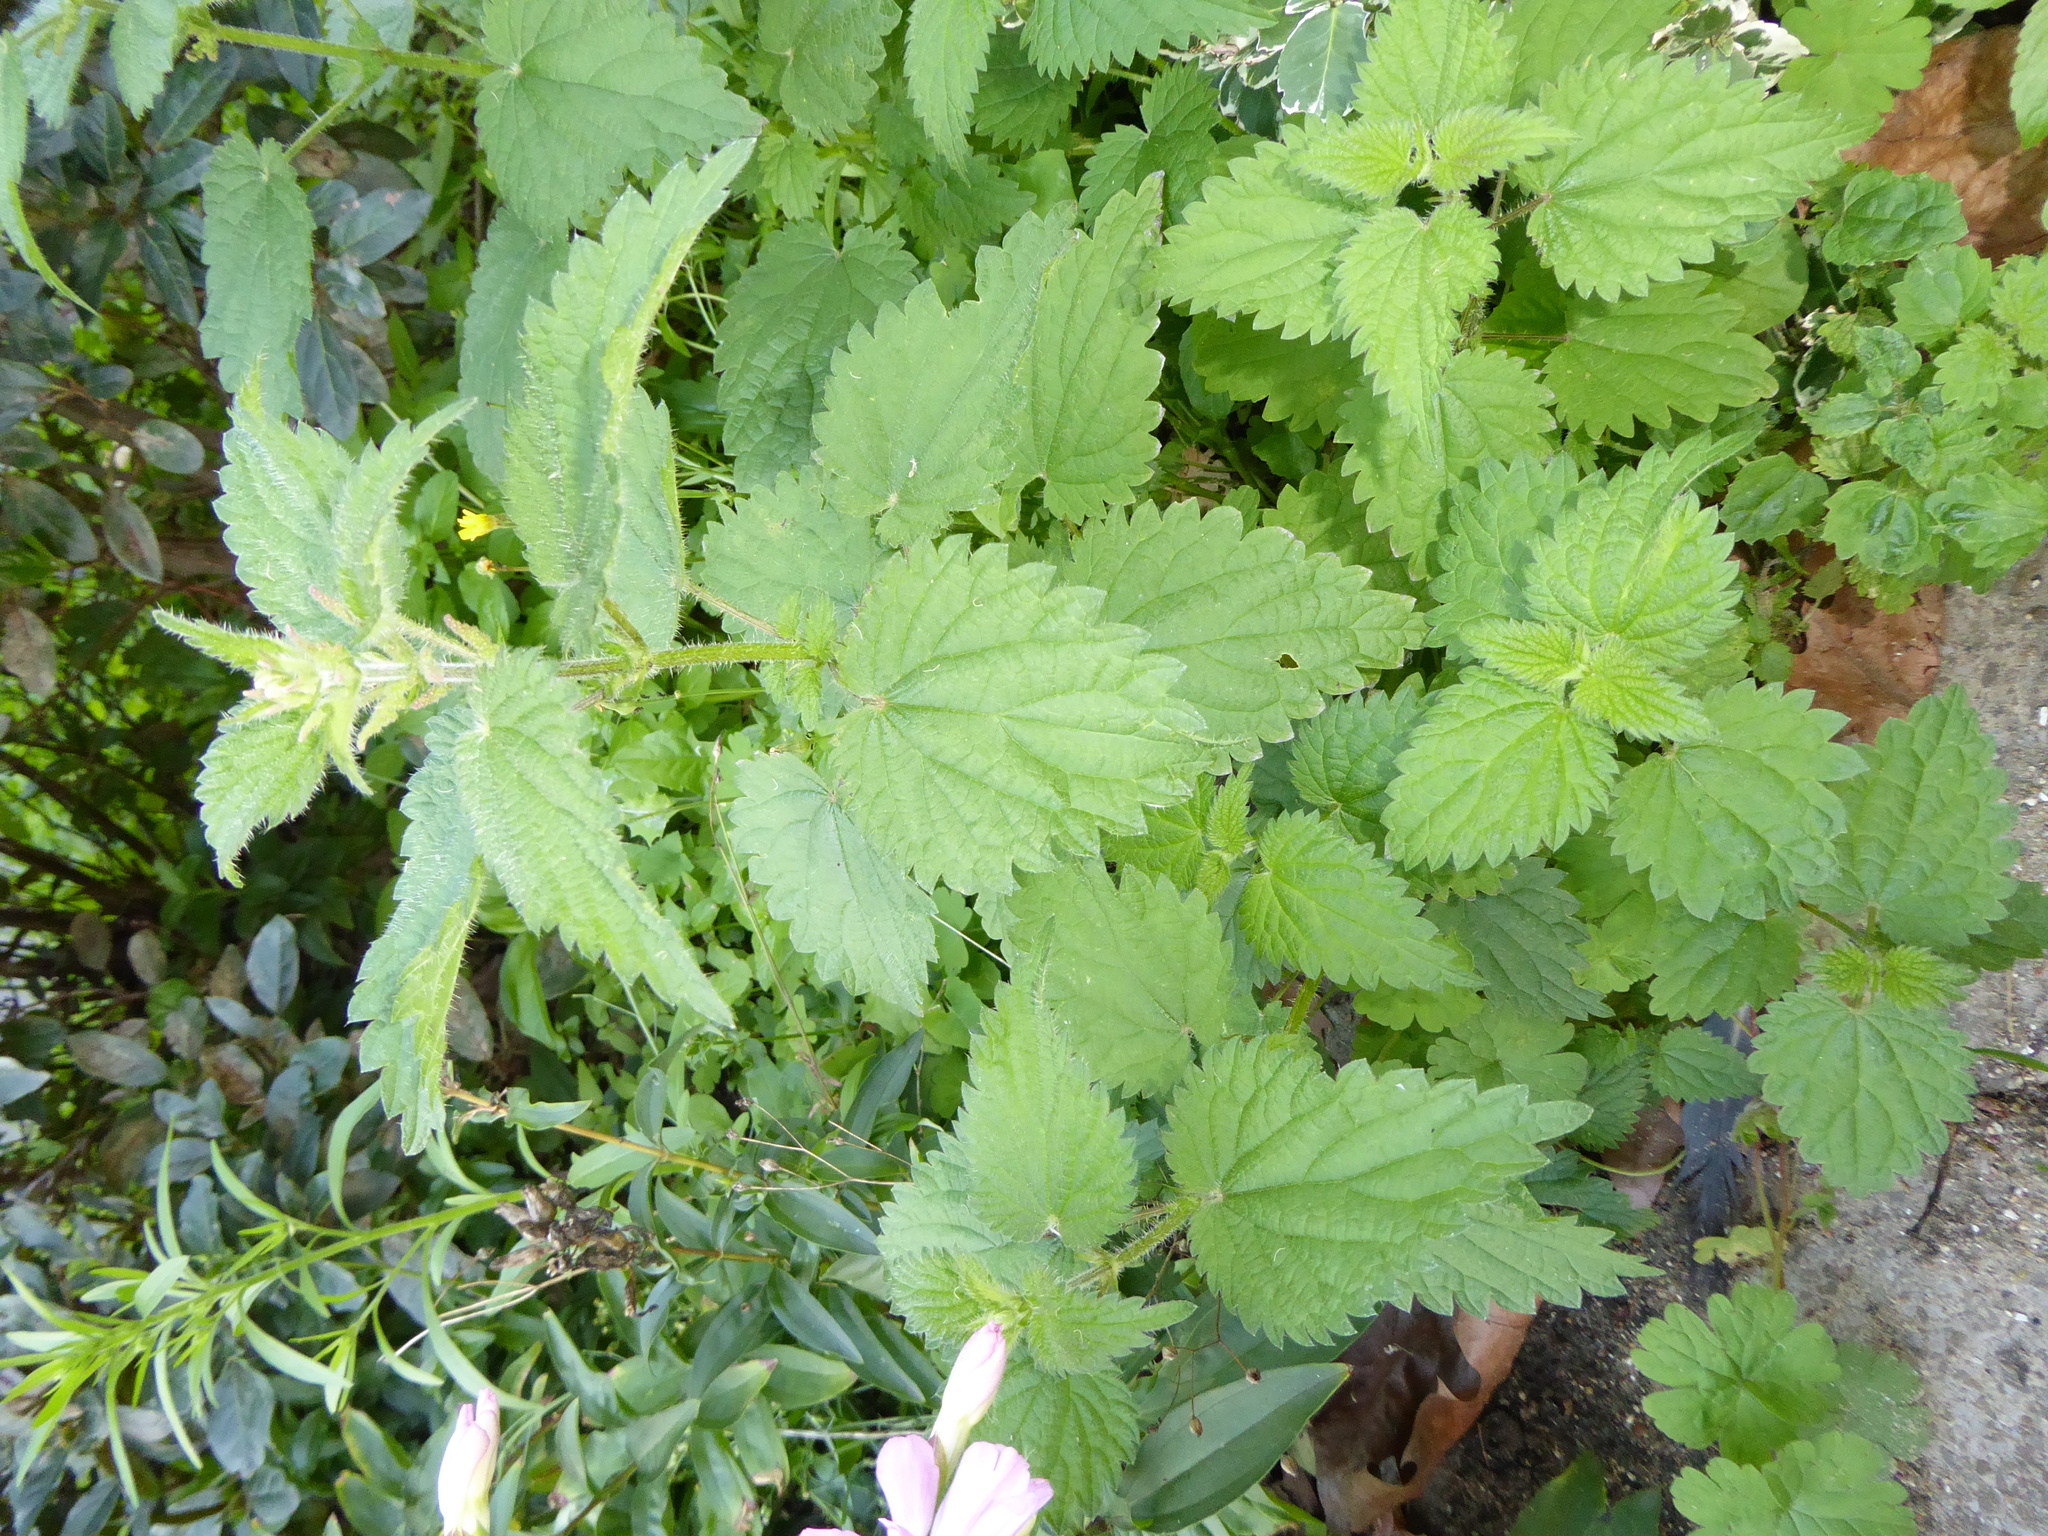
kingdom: Plantae
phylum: Tracheophyta
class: Magnoliopsida
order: Rosales
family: Urticaceae
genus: Urtica
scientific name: Urtica dioica
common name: Common nettle
